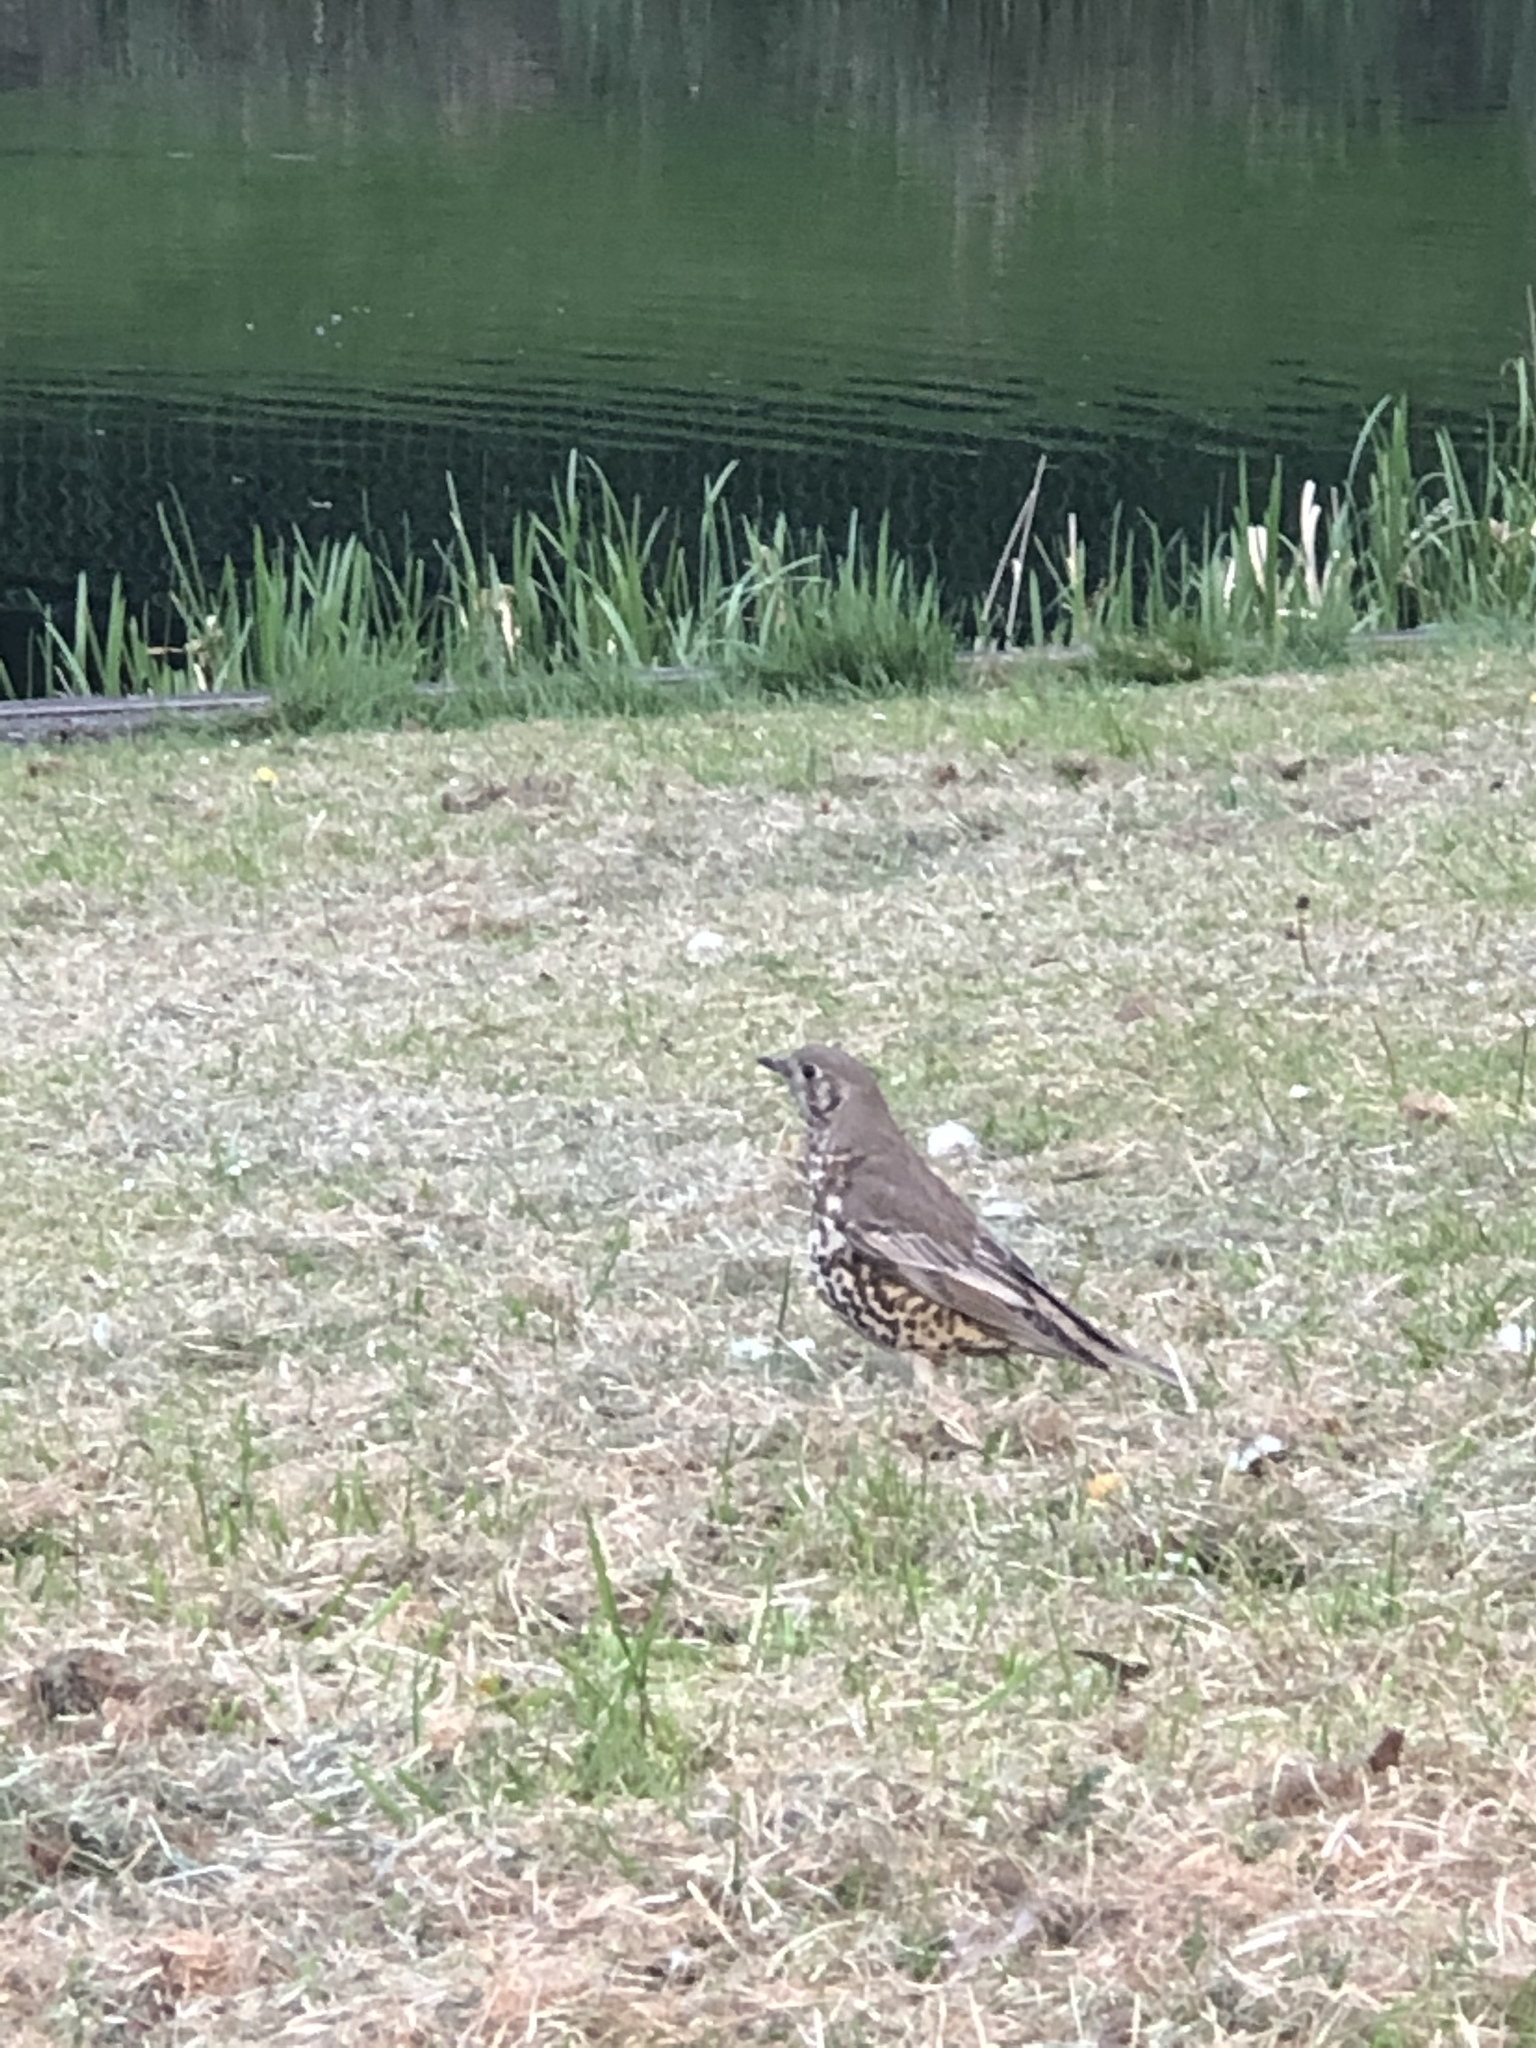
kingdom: Animalia
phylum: Chordata
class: Aves
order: Passeriformes
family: Turdidae
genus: Turdus
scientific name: Turdus viscivorus
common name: Mistle thrush
